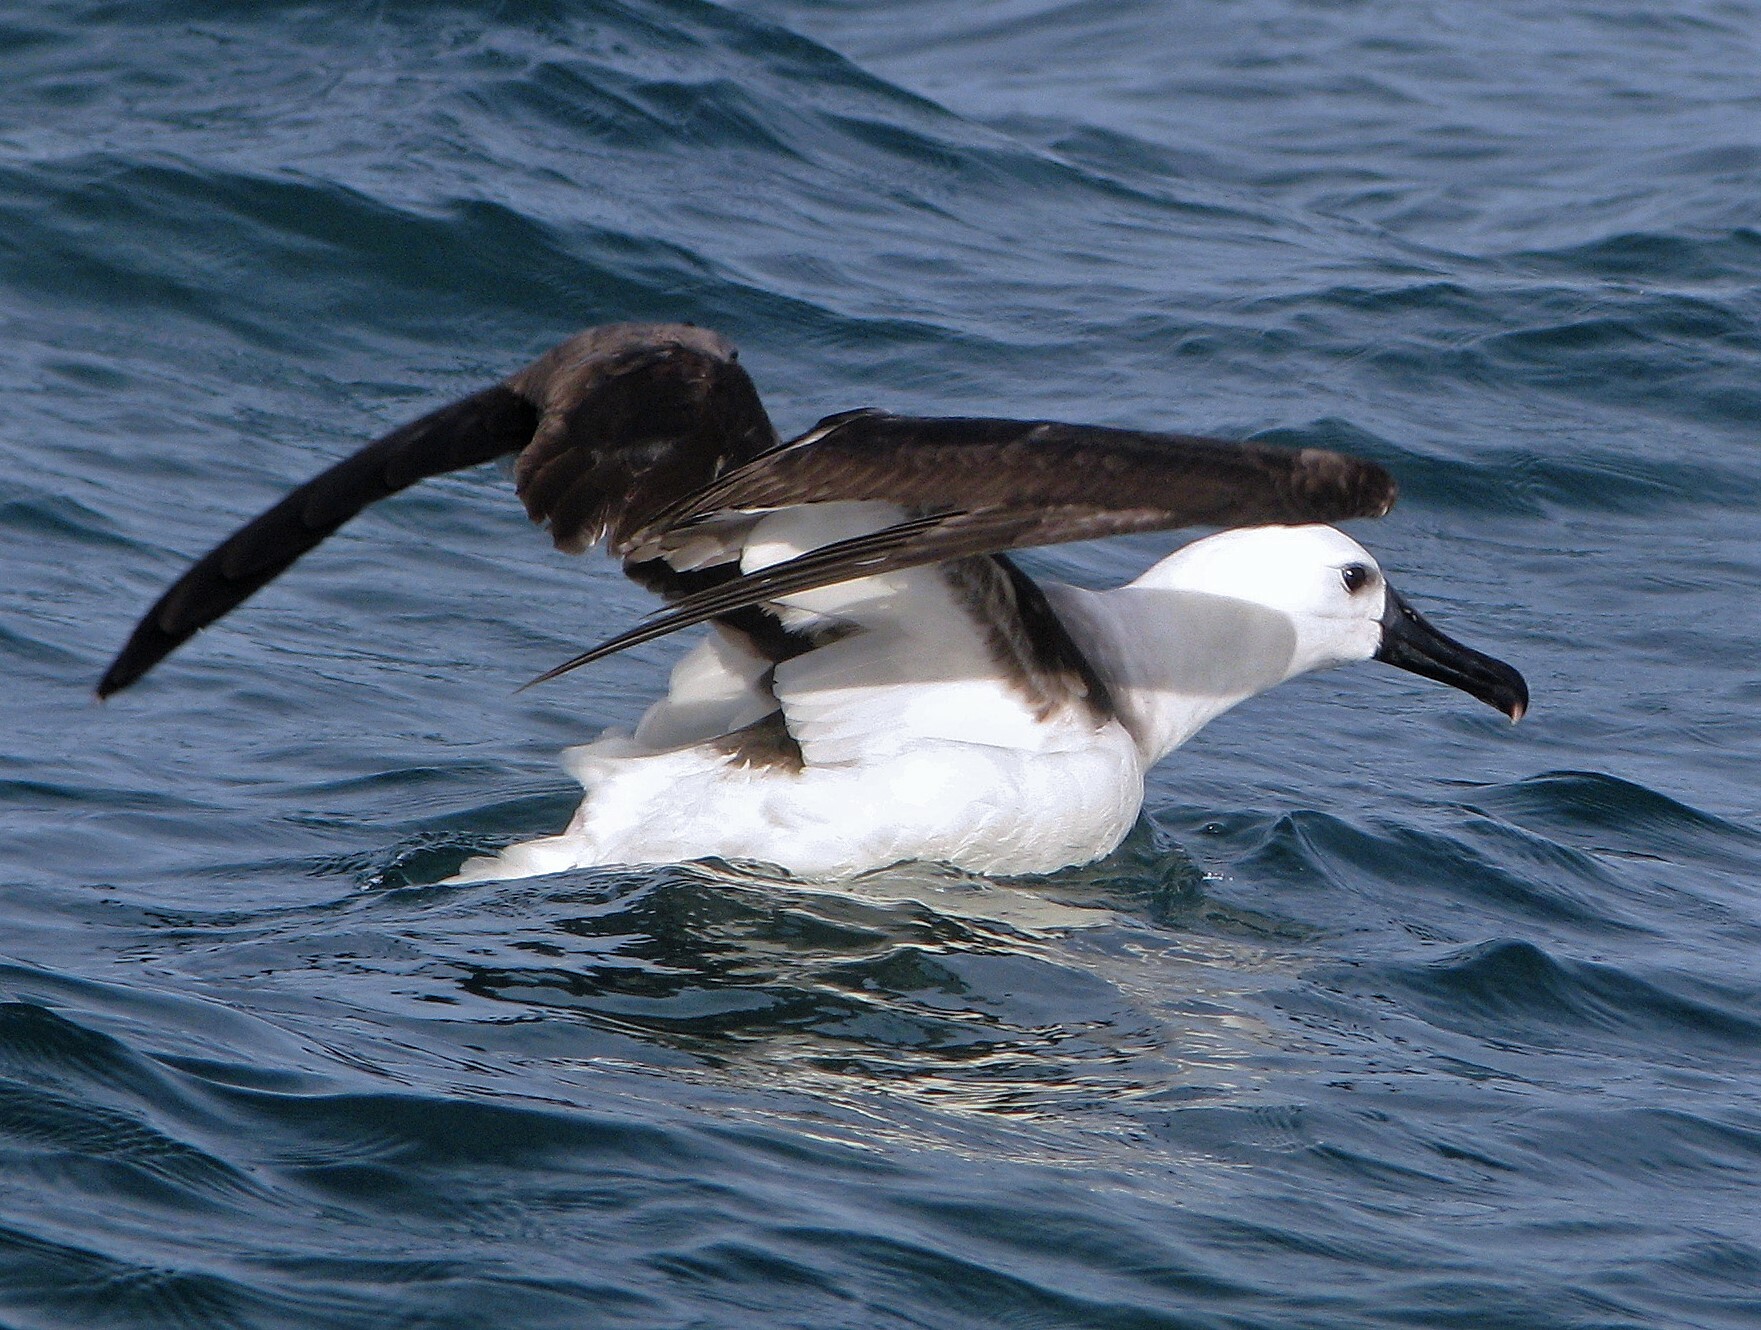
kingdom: Animalia
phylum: Chordata
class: Aves
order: Procellariiformes
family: Diomedeidae
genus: Thalassarche
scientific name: Thalassarche chlororhynchos
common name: Atlantic yellow-nosed albatross
